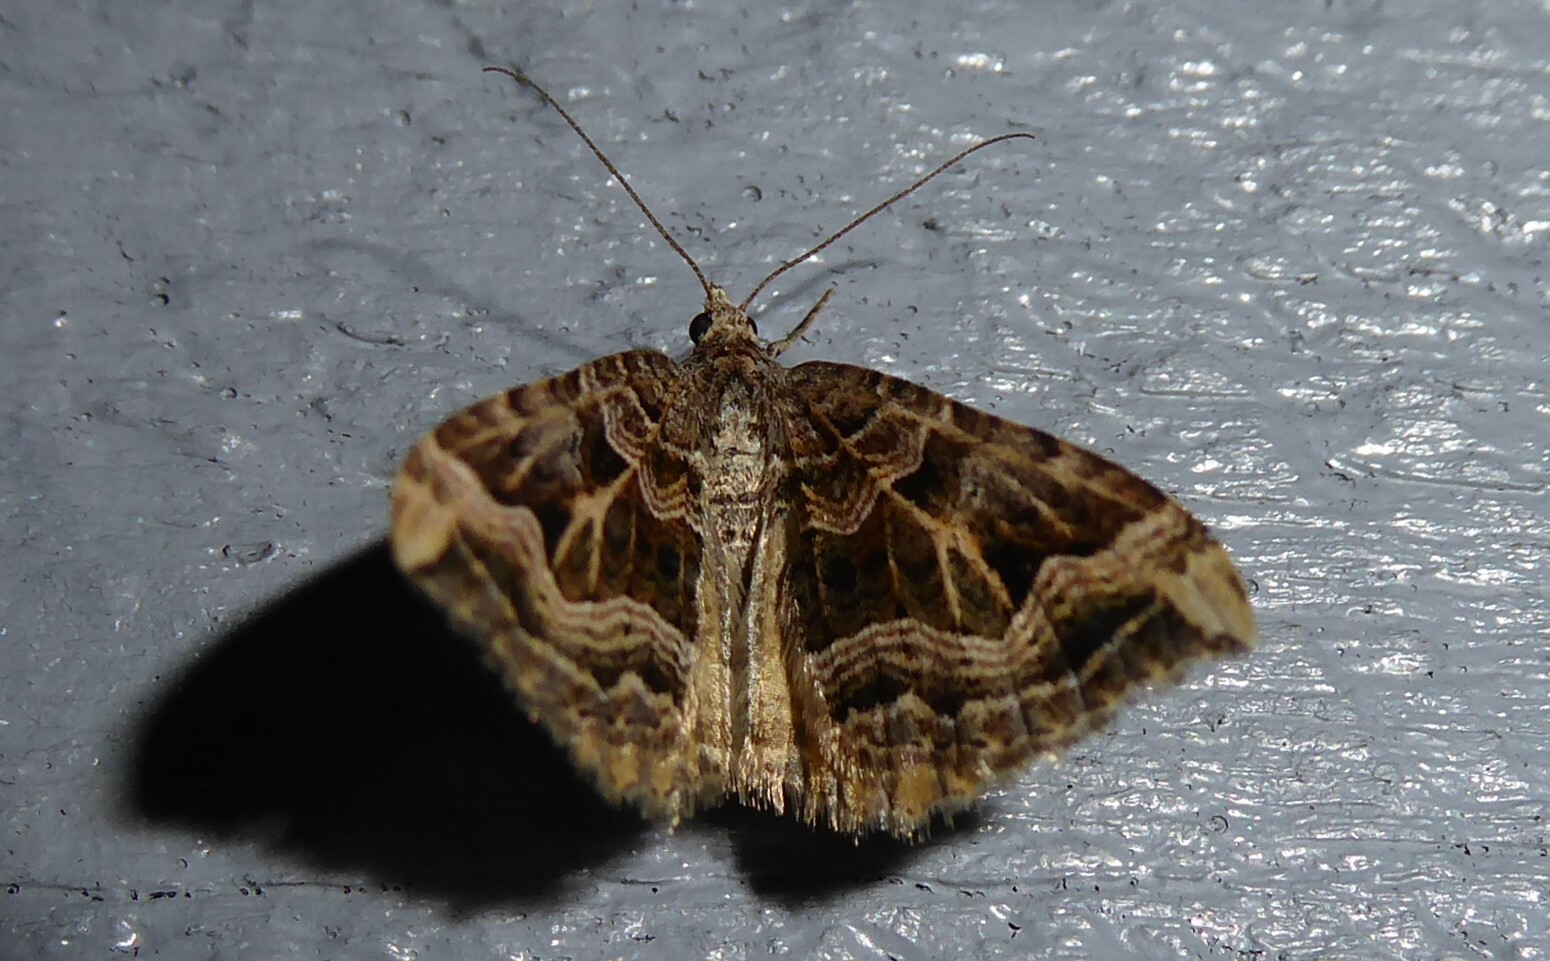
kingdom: Animalia
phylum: Arthropoda
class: Insecta
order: Lepidoptera
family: Geometridae
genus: Xanthorhoe
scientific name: Xanthorhoe semifissata
